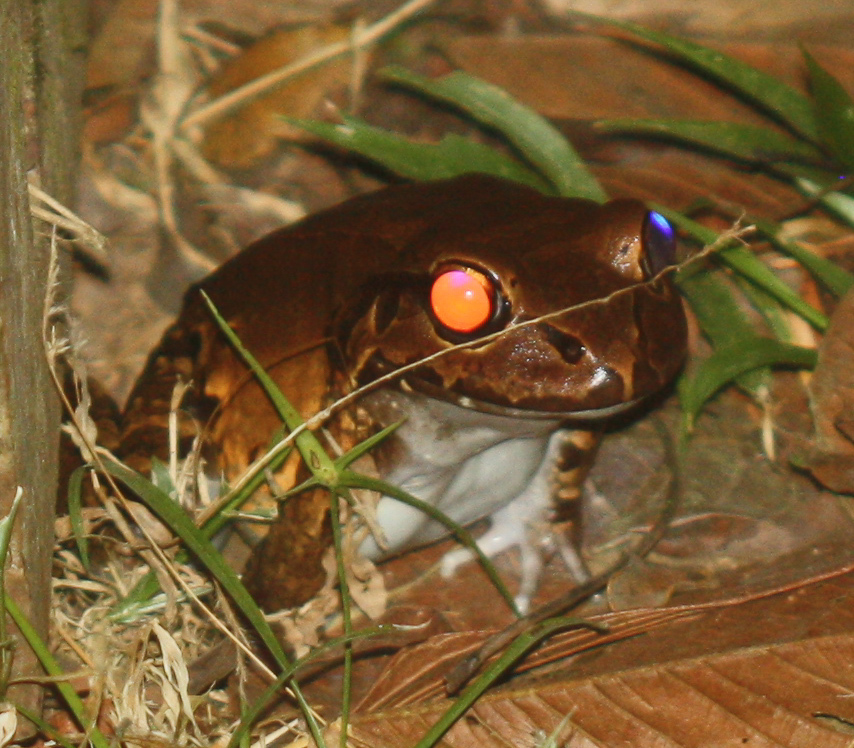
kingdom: Animalia
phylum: Chordata
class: Amphibia
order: Anura
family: Leptodactylidae
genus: Leptodactylus
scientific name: Leptodactylus savagei
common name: Savage's thin-toed frog
